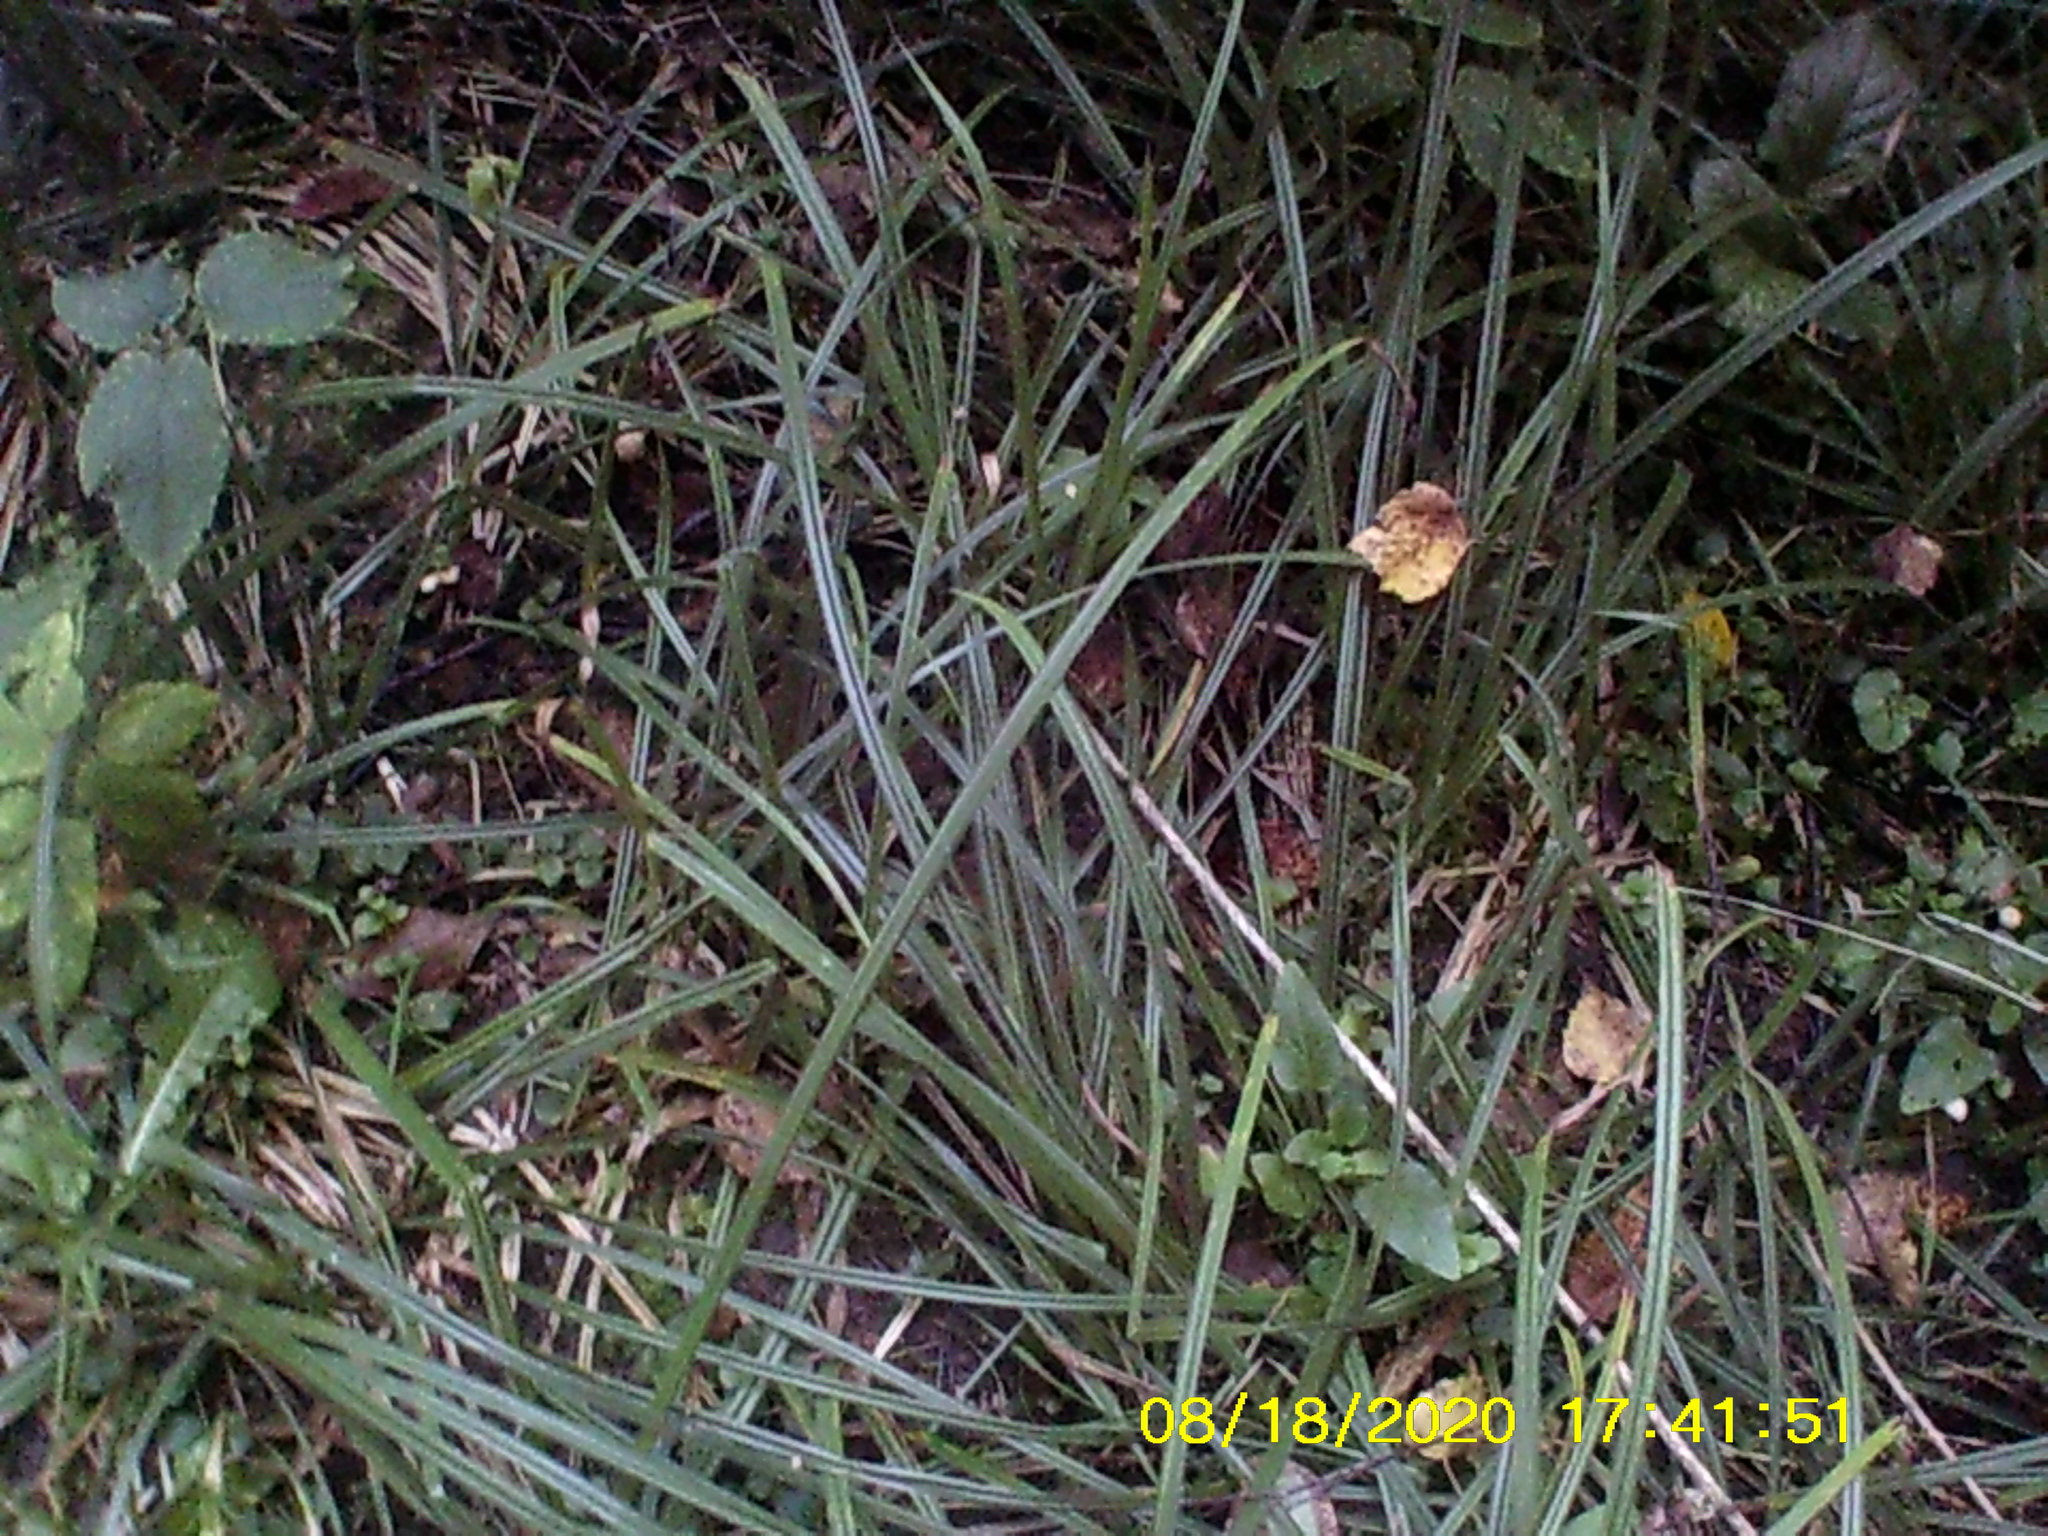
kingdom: Plantae
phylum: Tracheophyta
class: Liliopsida
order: Poales
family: Cyperaceae
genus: Carex
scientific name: Carex pilosa
